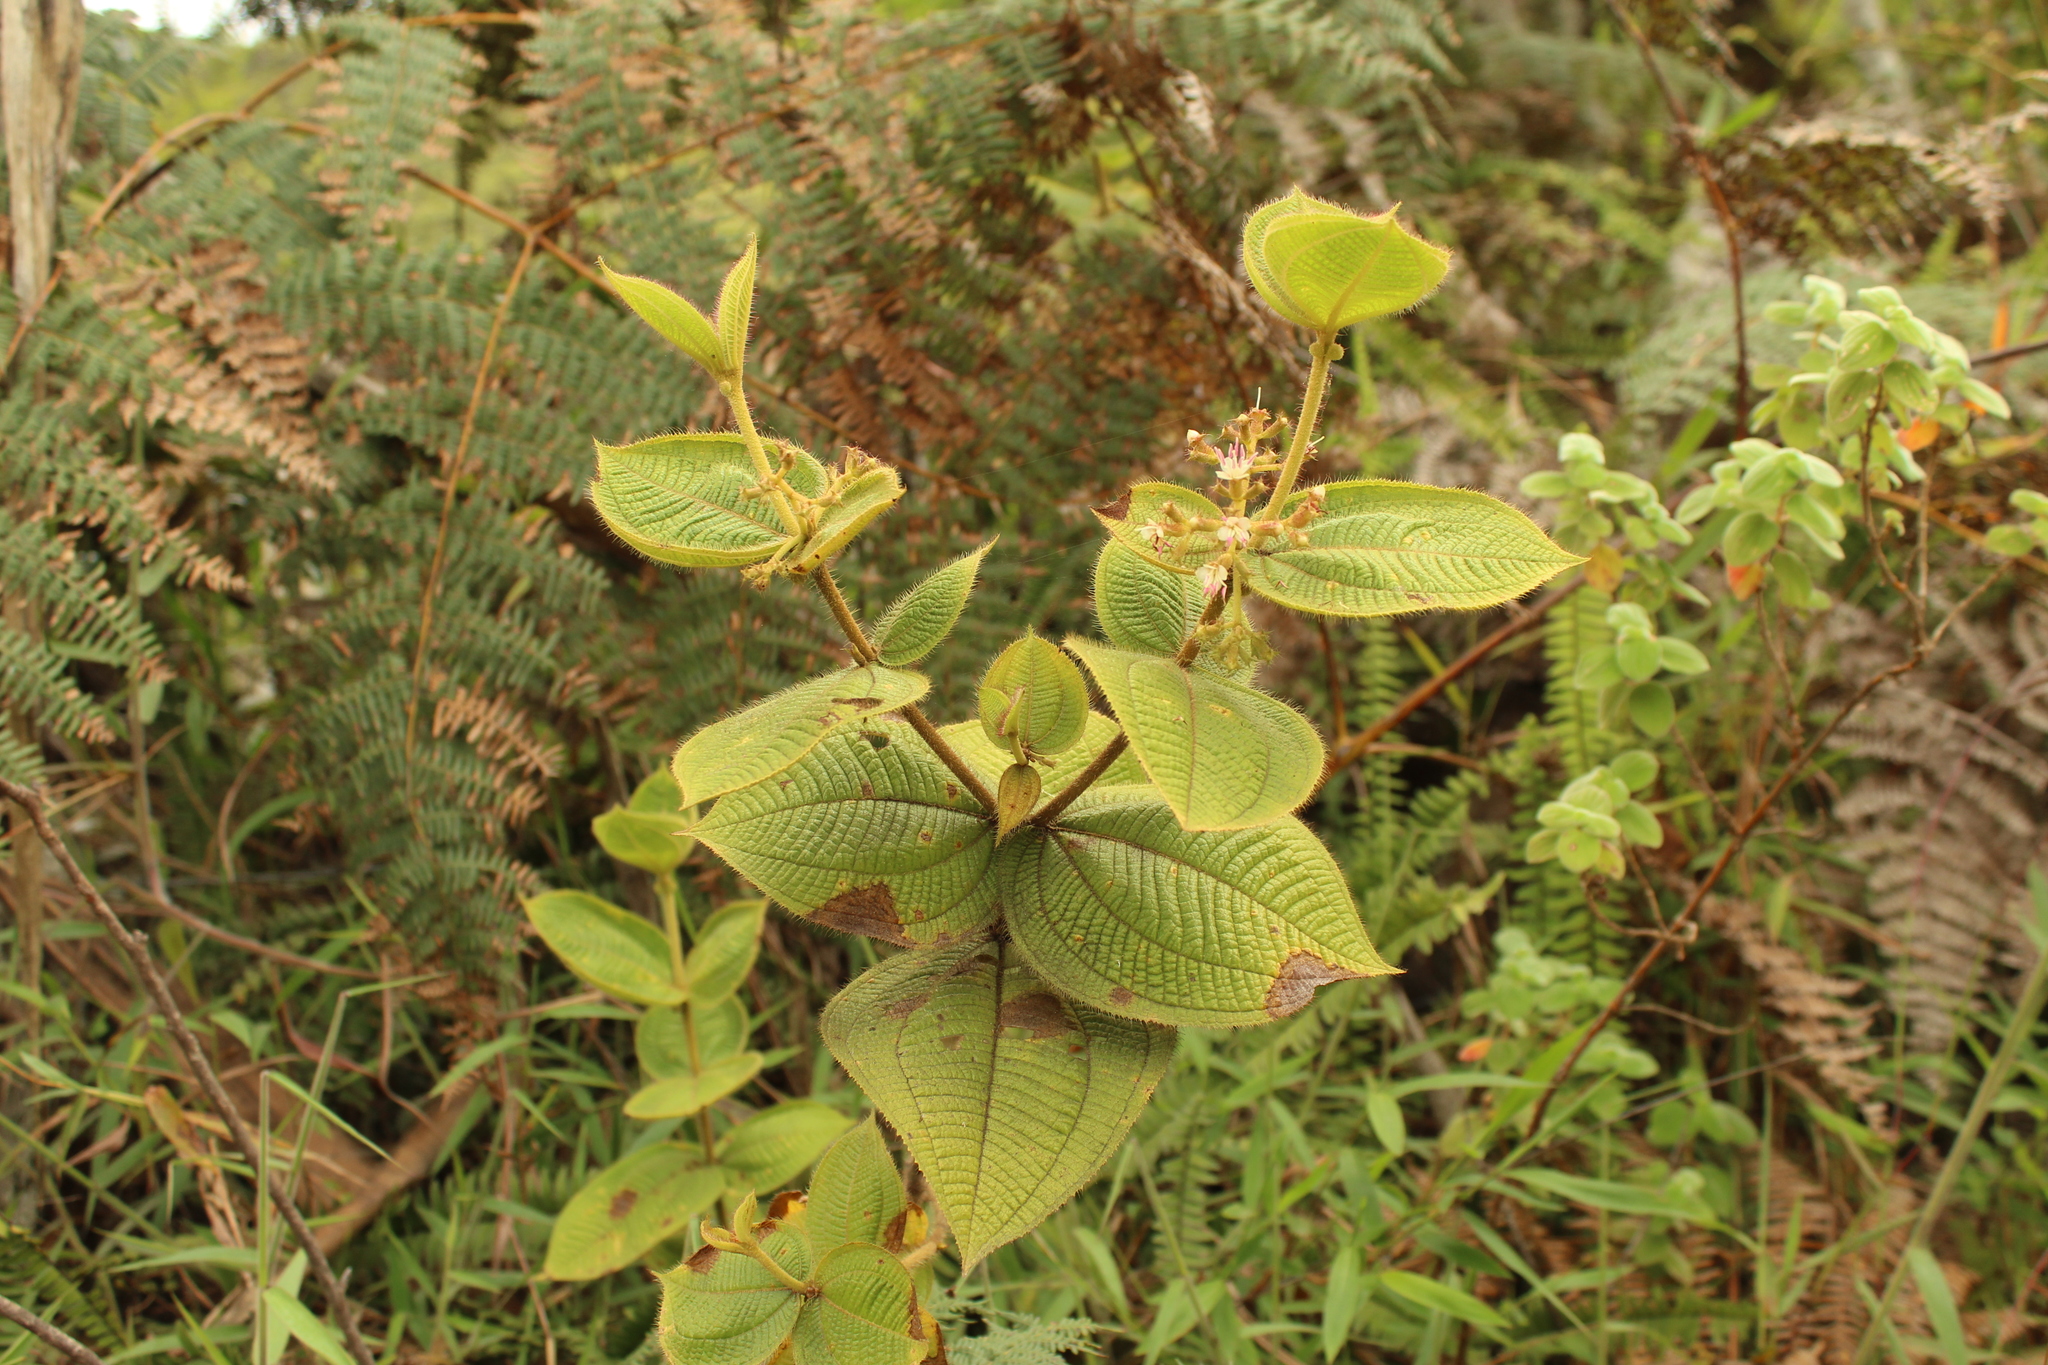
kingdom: Plantae
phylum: Tracheophyta
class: Magnoliopsida
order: Myrtales
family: Melastomataceae
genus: Miconia
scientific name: Miconia domociliata
